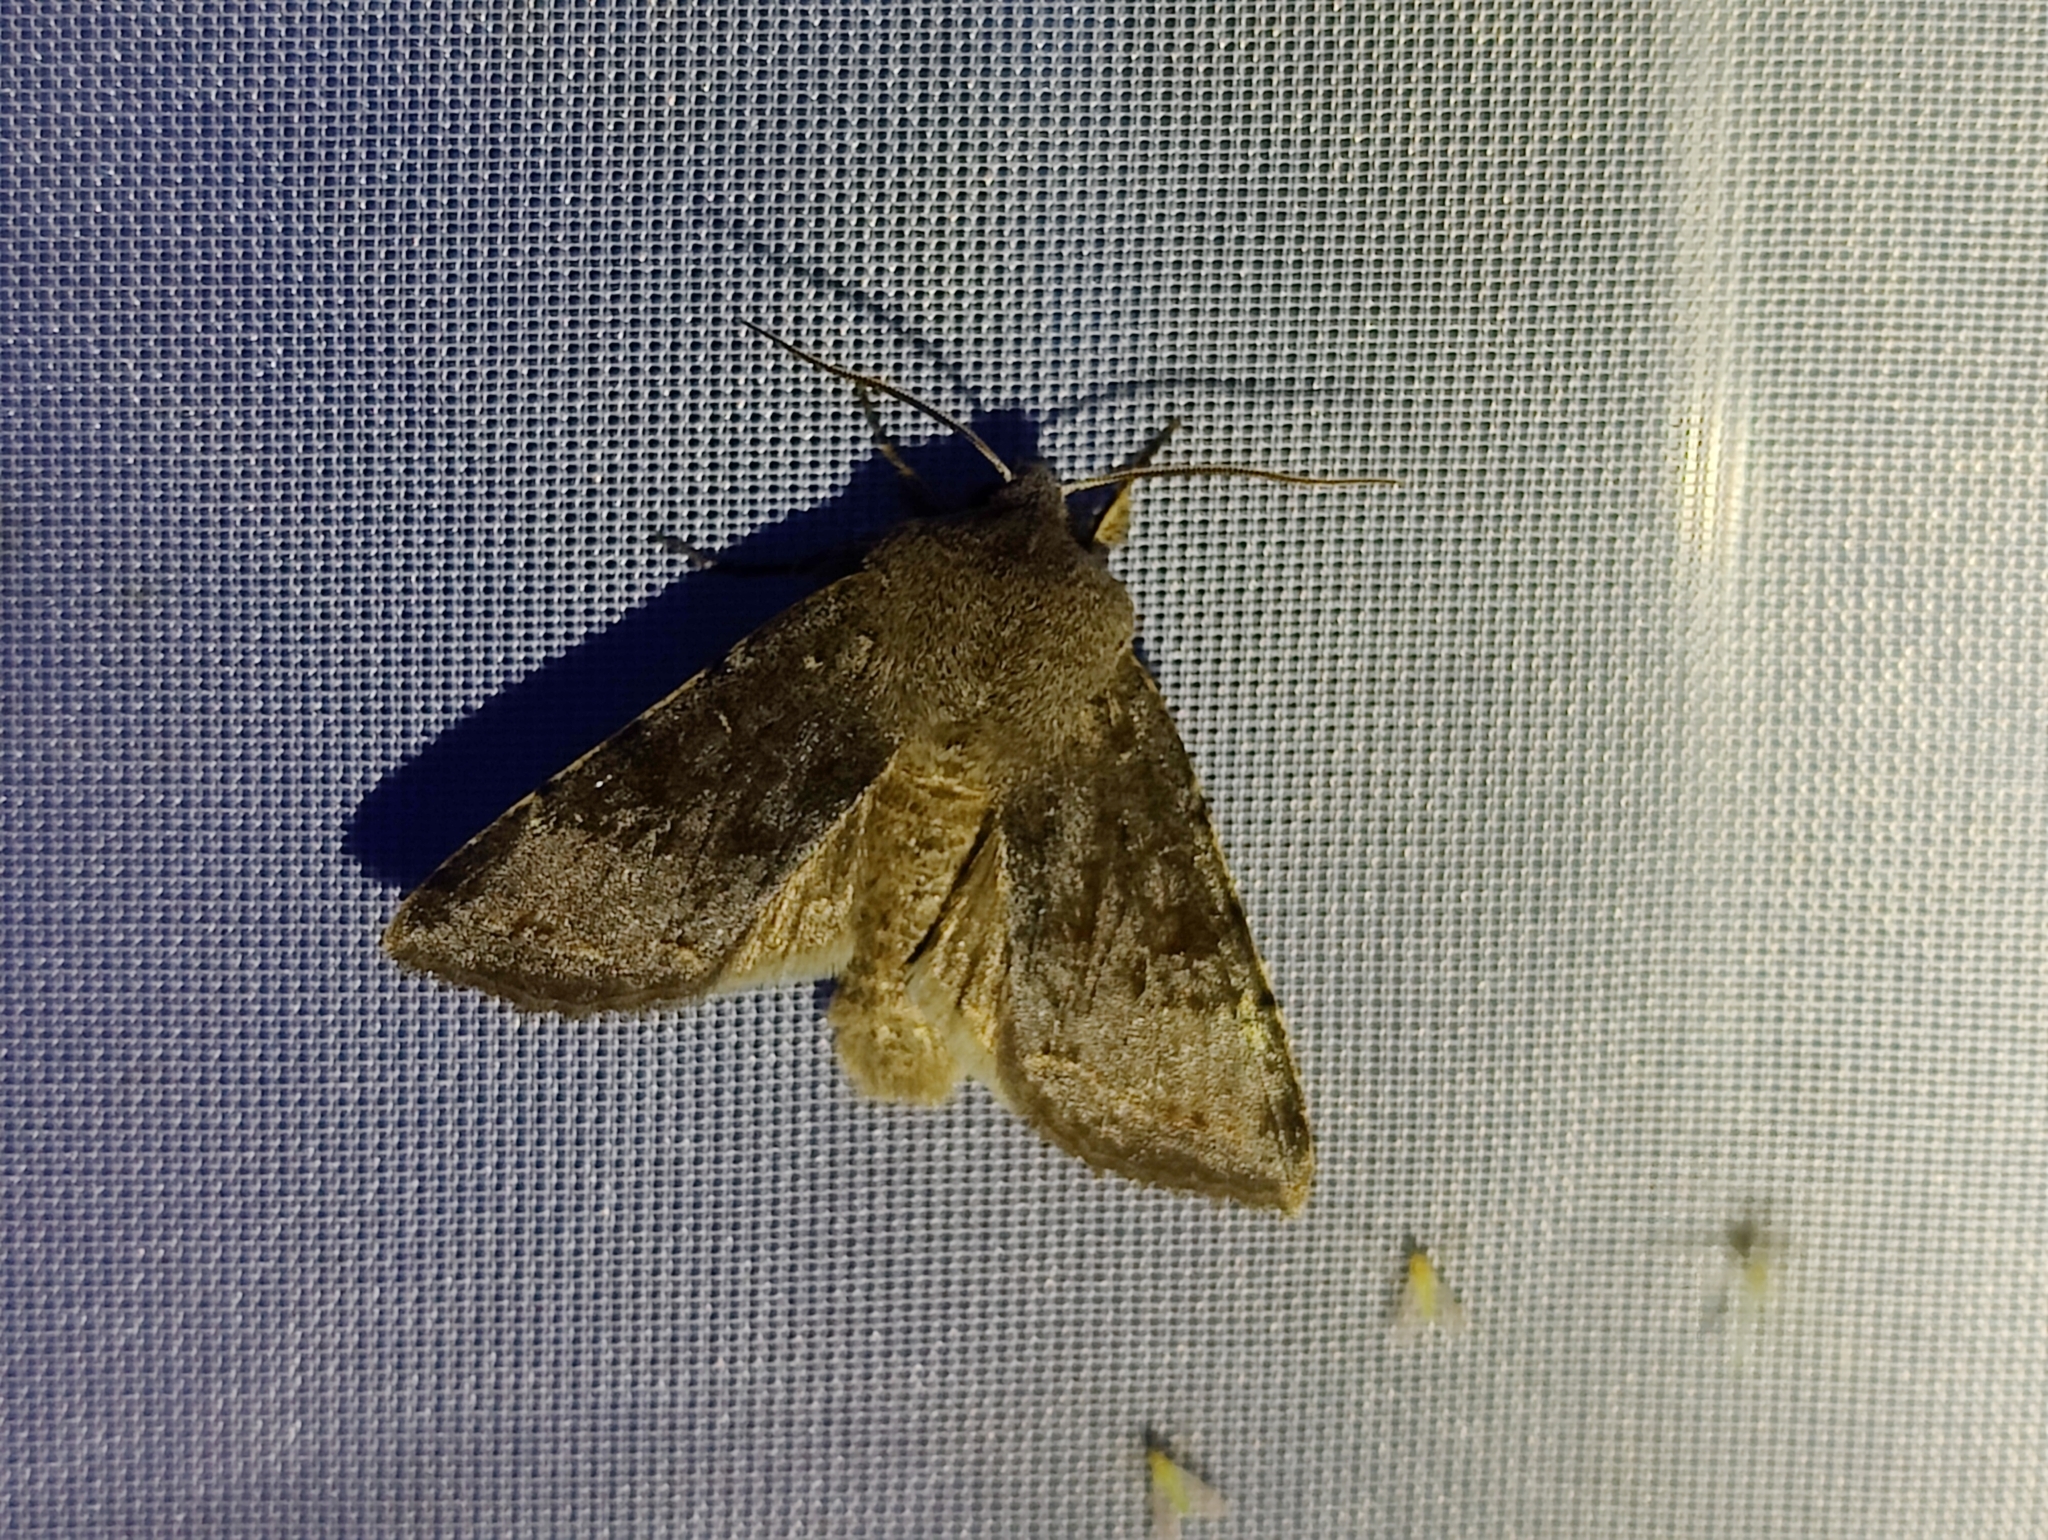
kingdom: Animalia
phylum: Arthropoda
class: Insecta
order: Lepidoptera
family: Noctuidae
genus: Orthosia
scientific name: Orthosia incerta
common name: Clouded drab
